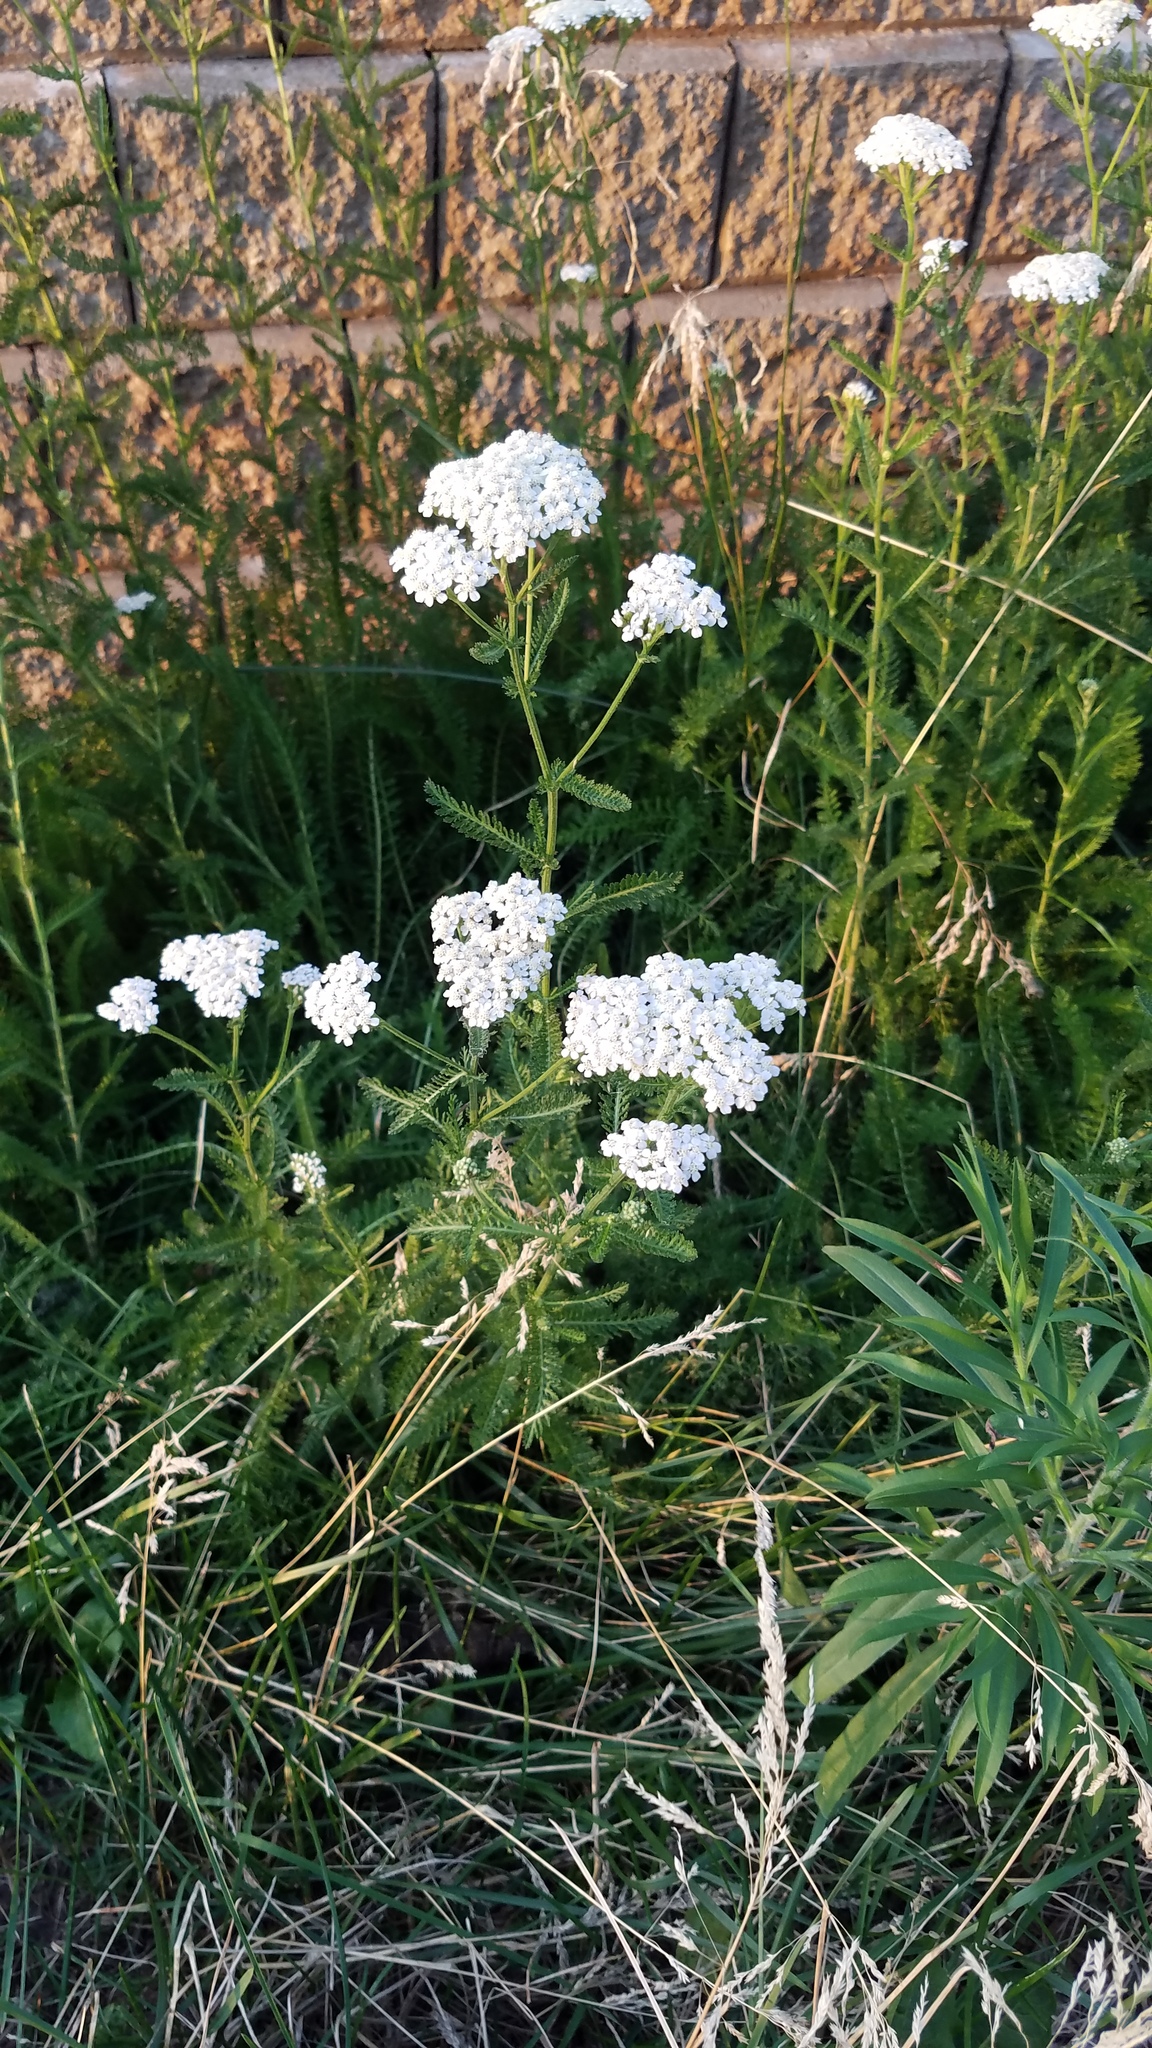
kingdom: Plantae
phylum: Tracheophyta
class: Magnoliopsida
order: Asterales
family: Asteraceae
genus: Achillea
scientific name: Achillea millefolium
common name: Yarrow
